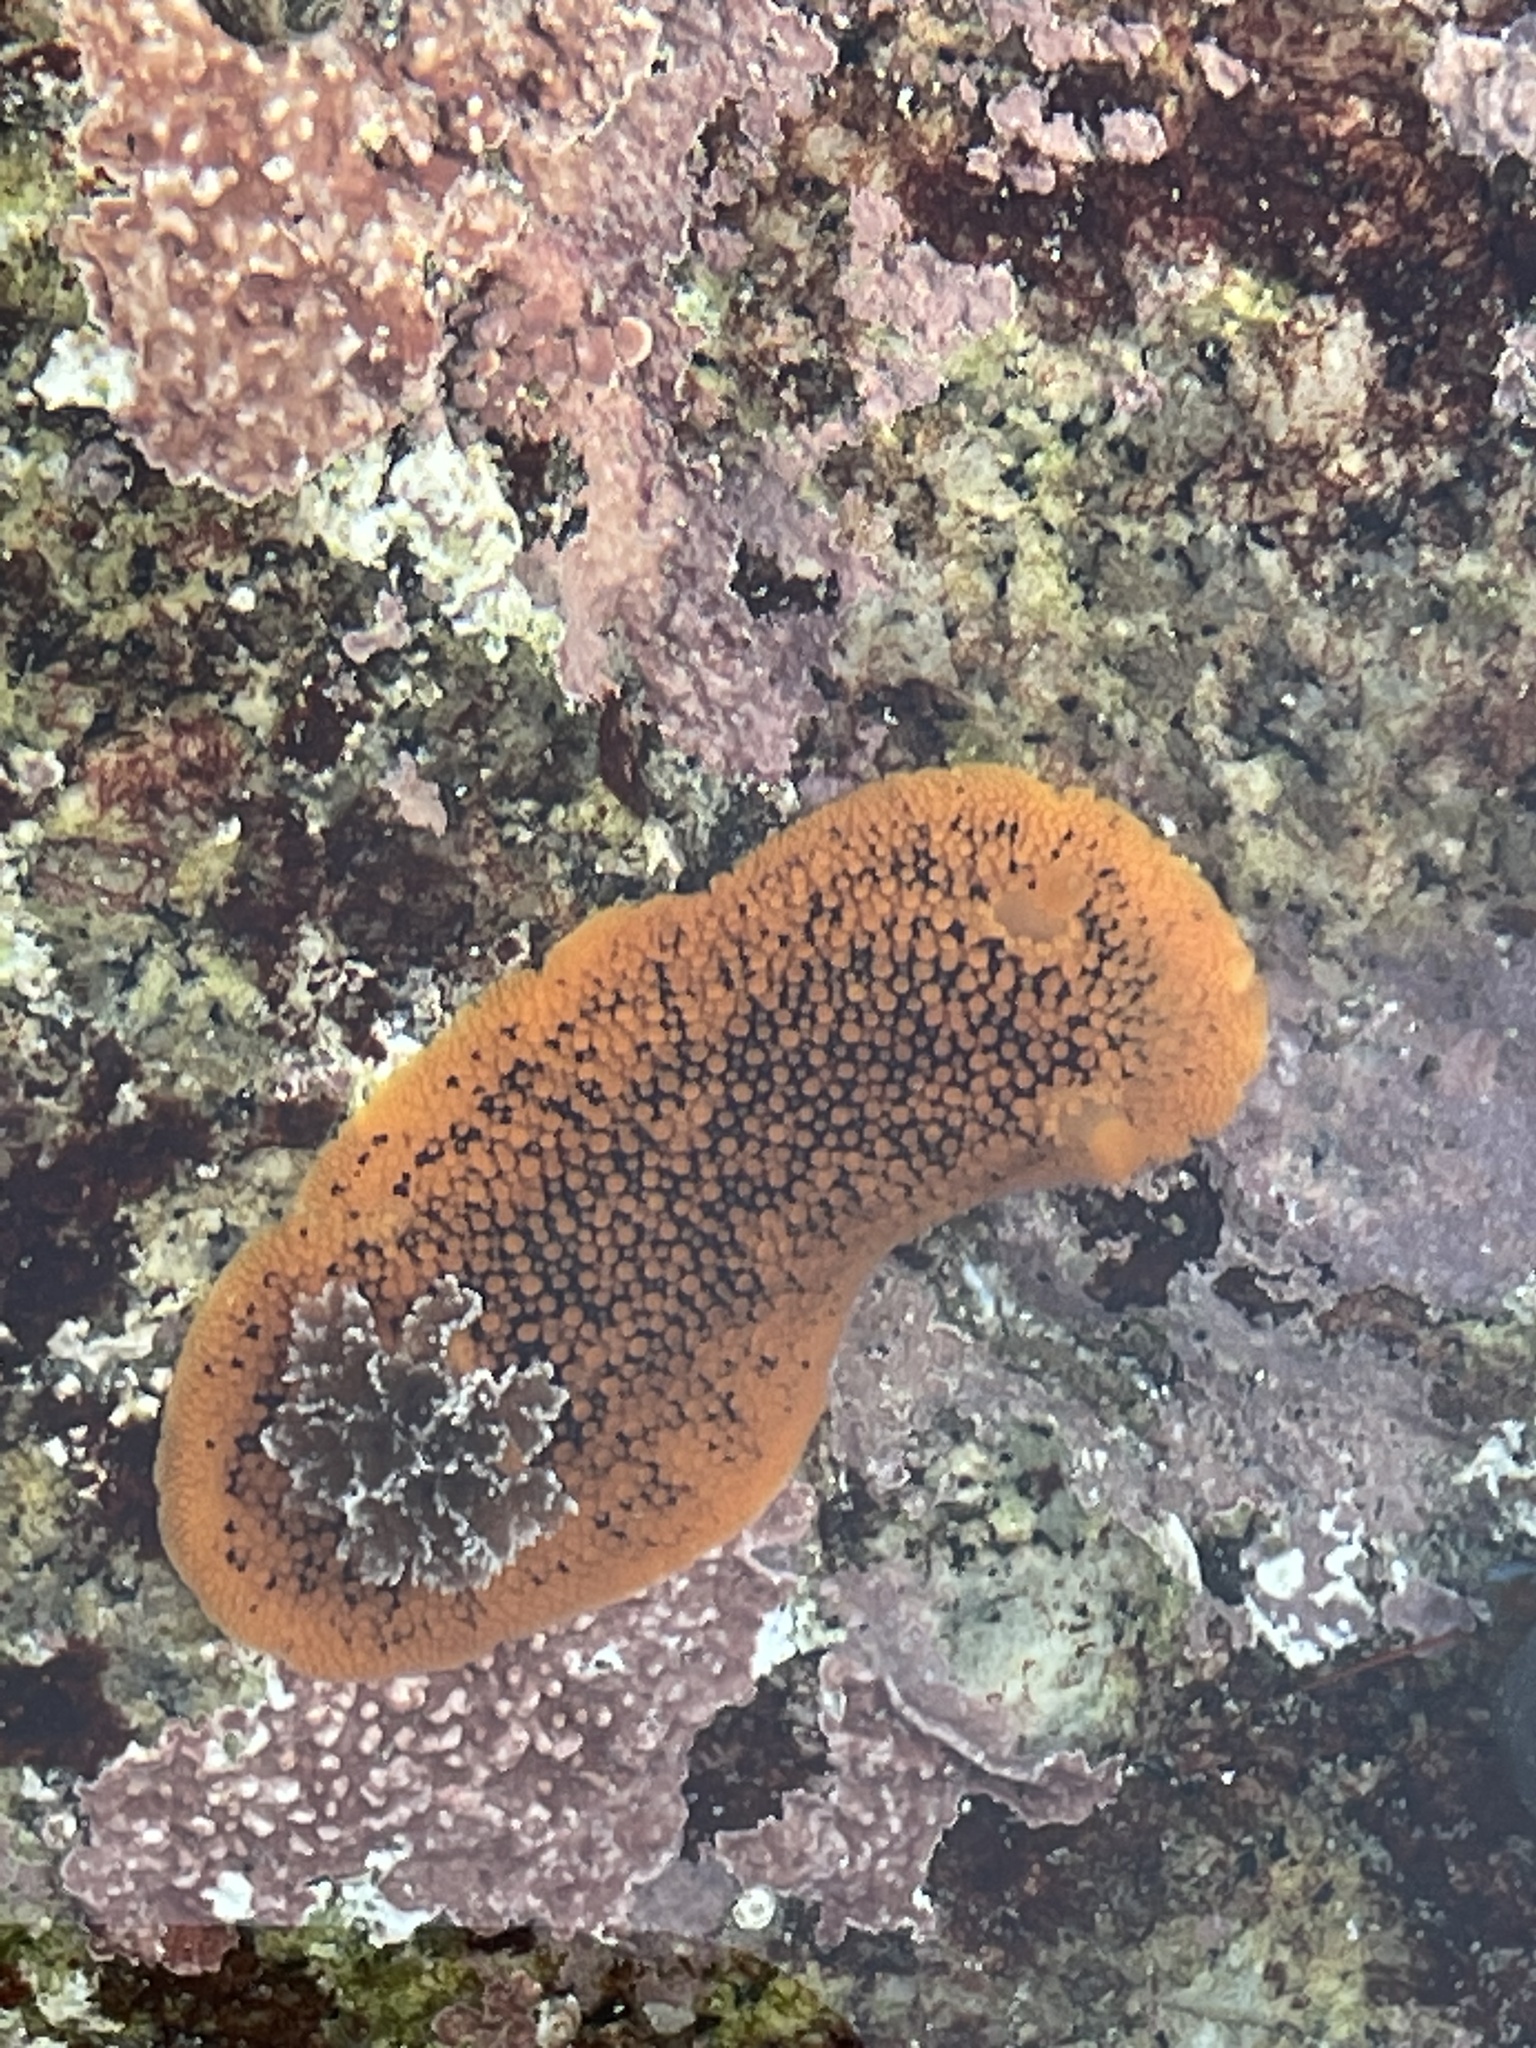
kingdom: Animalia
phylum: Mollusca
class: Gastropoda
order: Nudibranchia
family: Discodorididae
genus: Peltodoris
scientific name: Peltodoris nobilis
